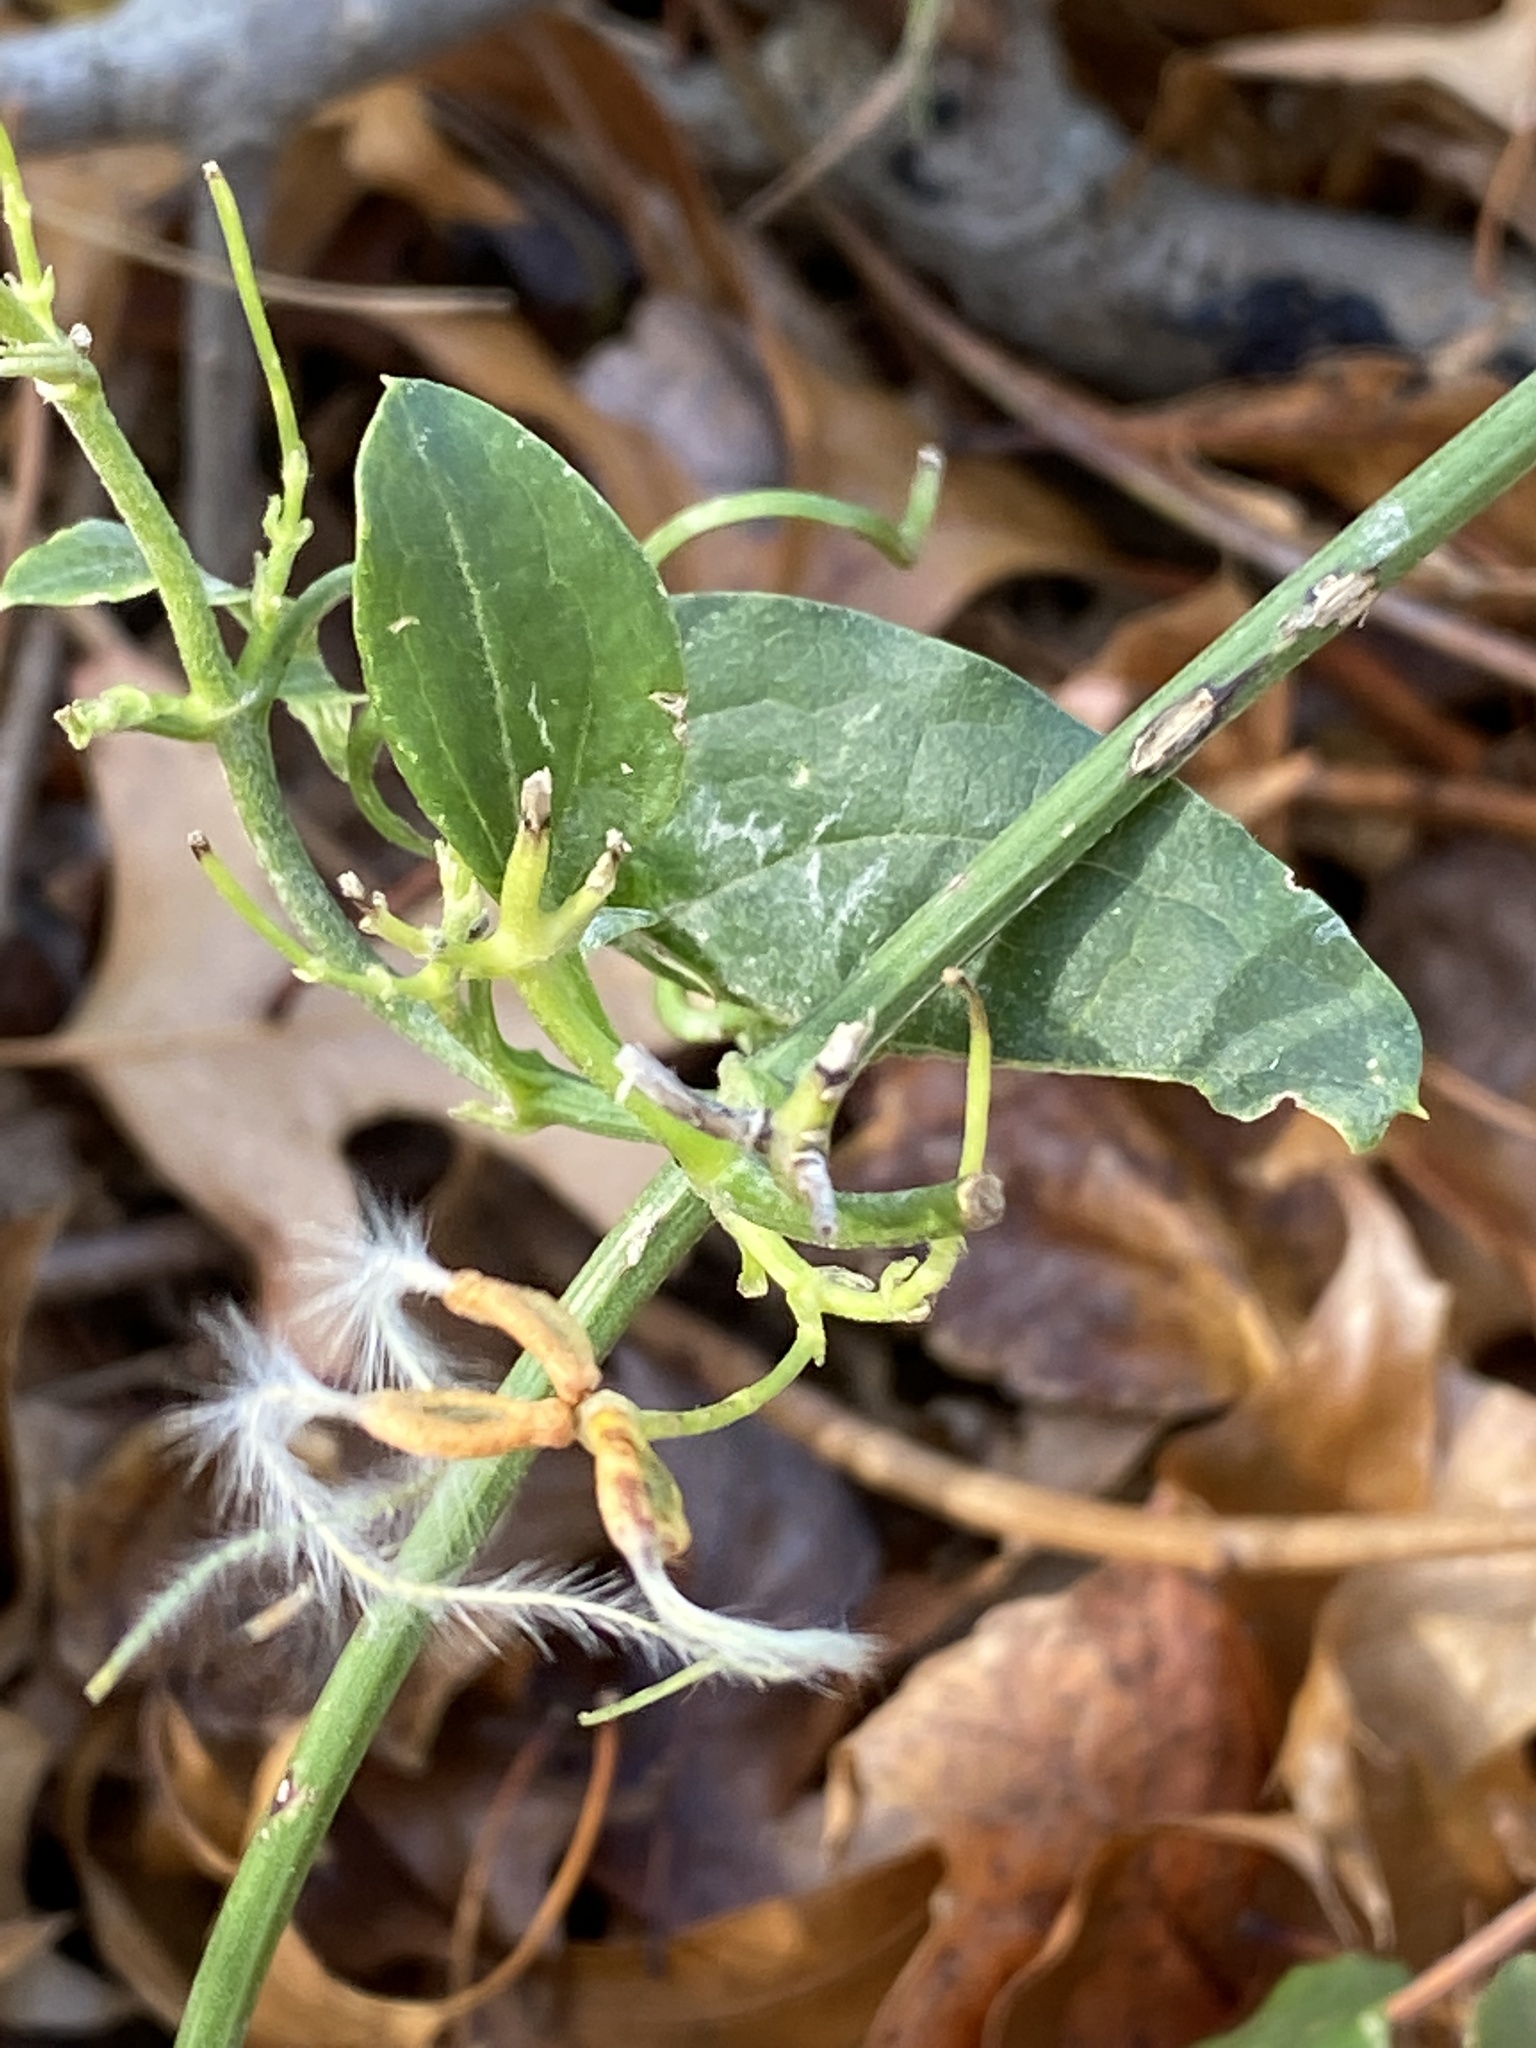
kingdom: Plantae
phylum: Tracheophyta
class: Magnoliopsida
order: Ranunculales
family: Ranunculaceae
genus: Clematis
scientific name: Clematis terniflora
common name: Sweet autumn clematis
